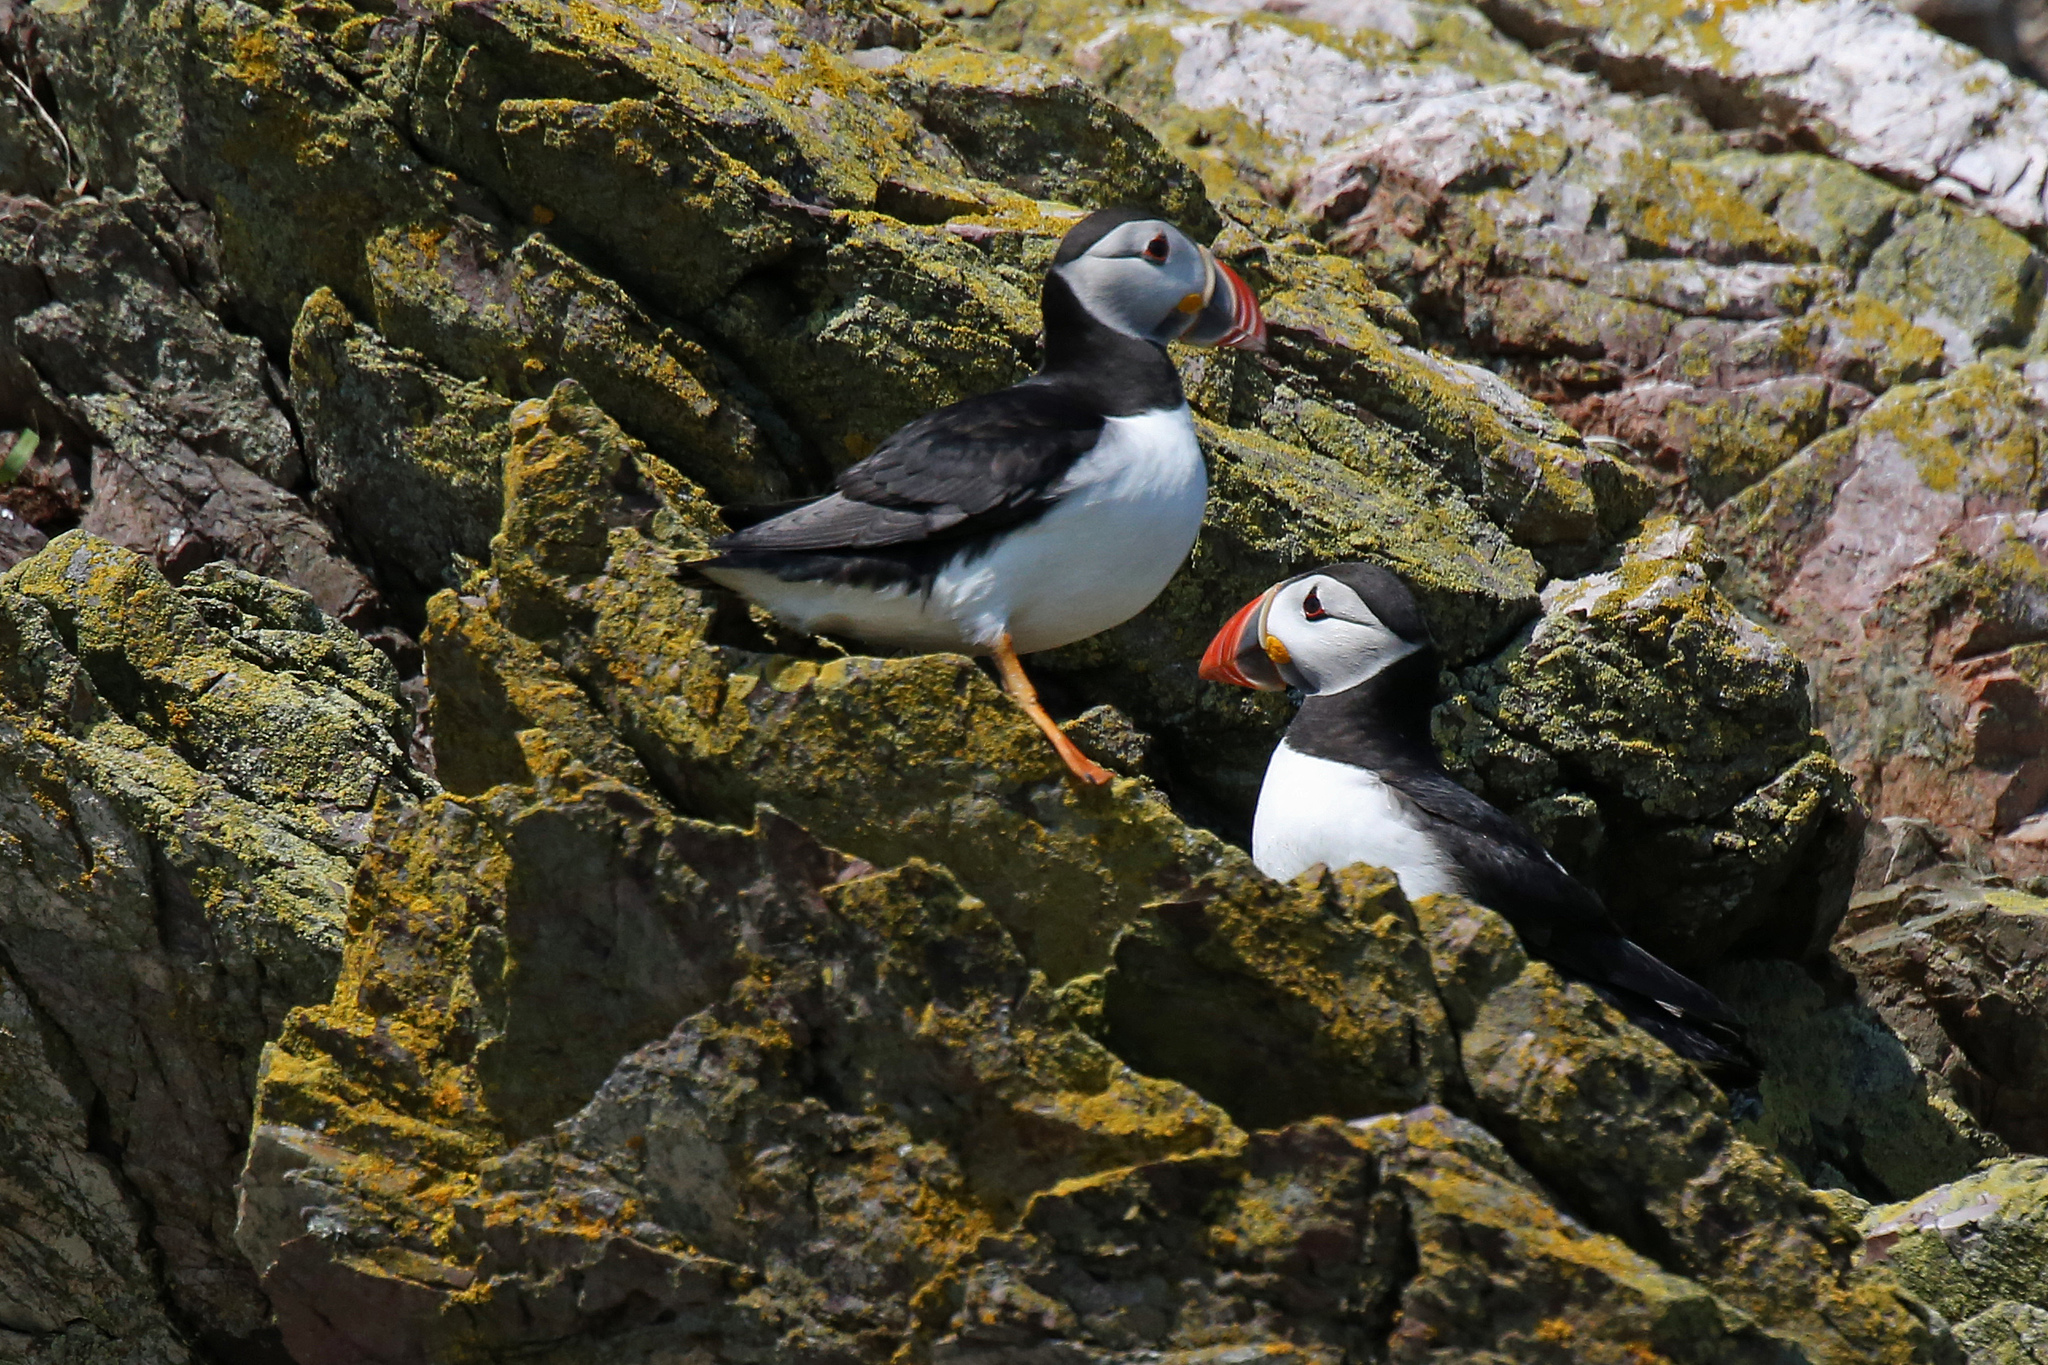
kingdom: Animalia
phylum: Chordata
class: Aves
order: Charadriiformes
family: Alcidae
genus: Fratercula
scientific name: Fratercula arctica
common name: Atlantic puffin
